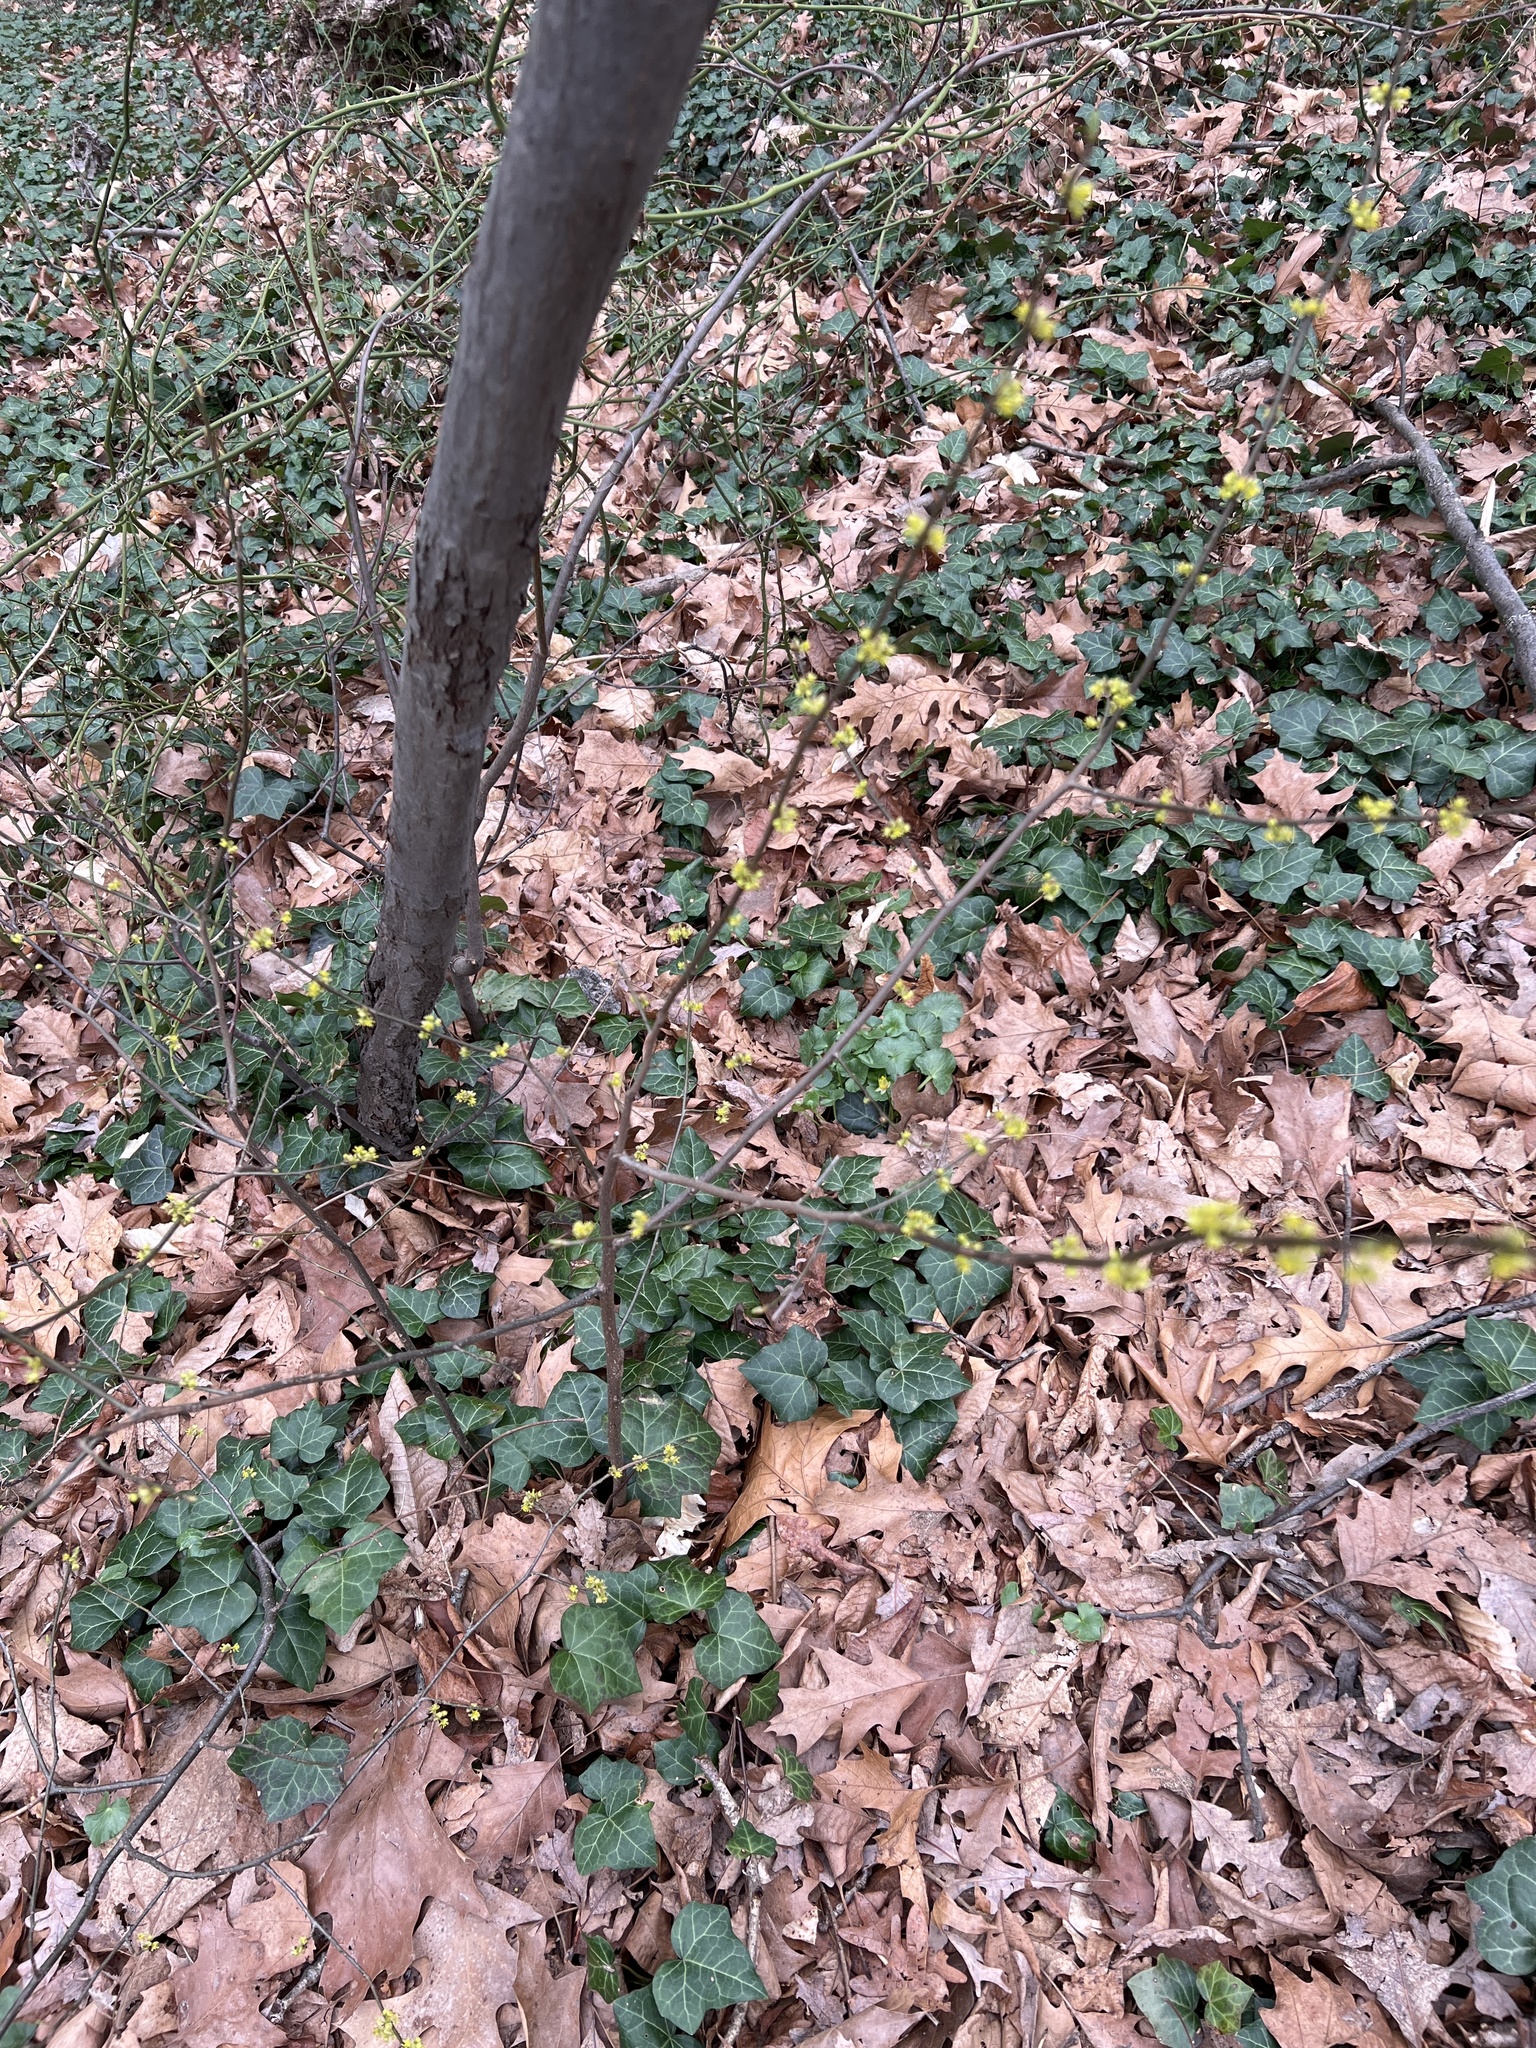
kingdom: Plantae
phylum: Tracheophyta
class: Magnoliopsida
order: Laurales
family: Lauraceae
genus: Lindera
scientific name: Lindera benzoin
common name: Spicebush
